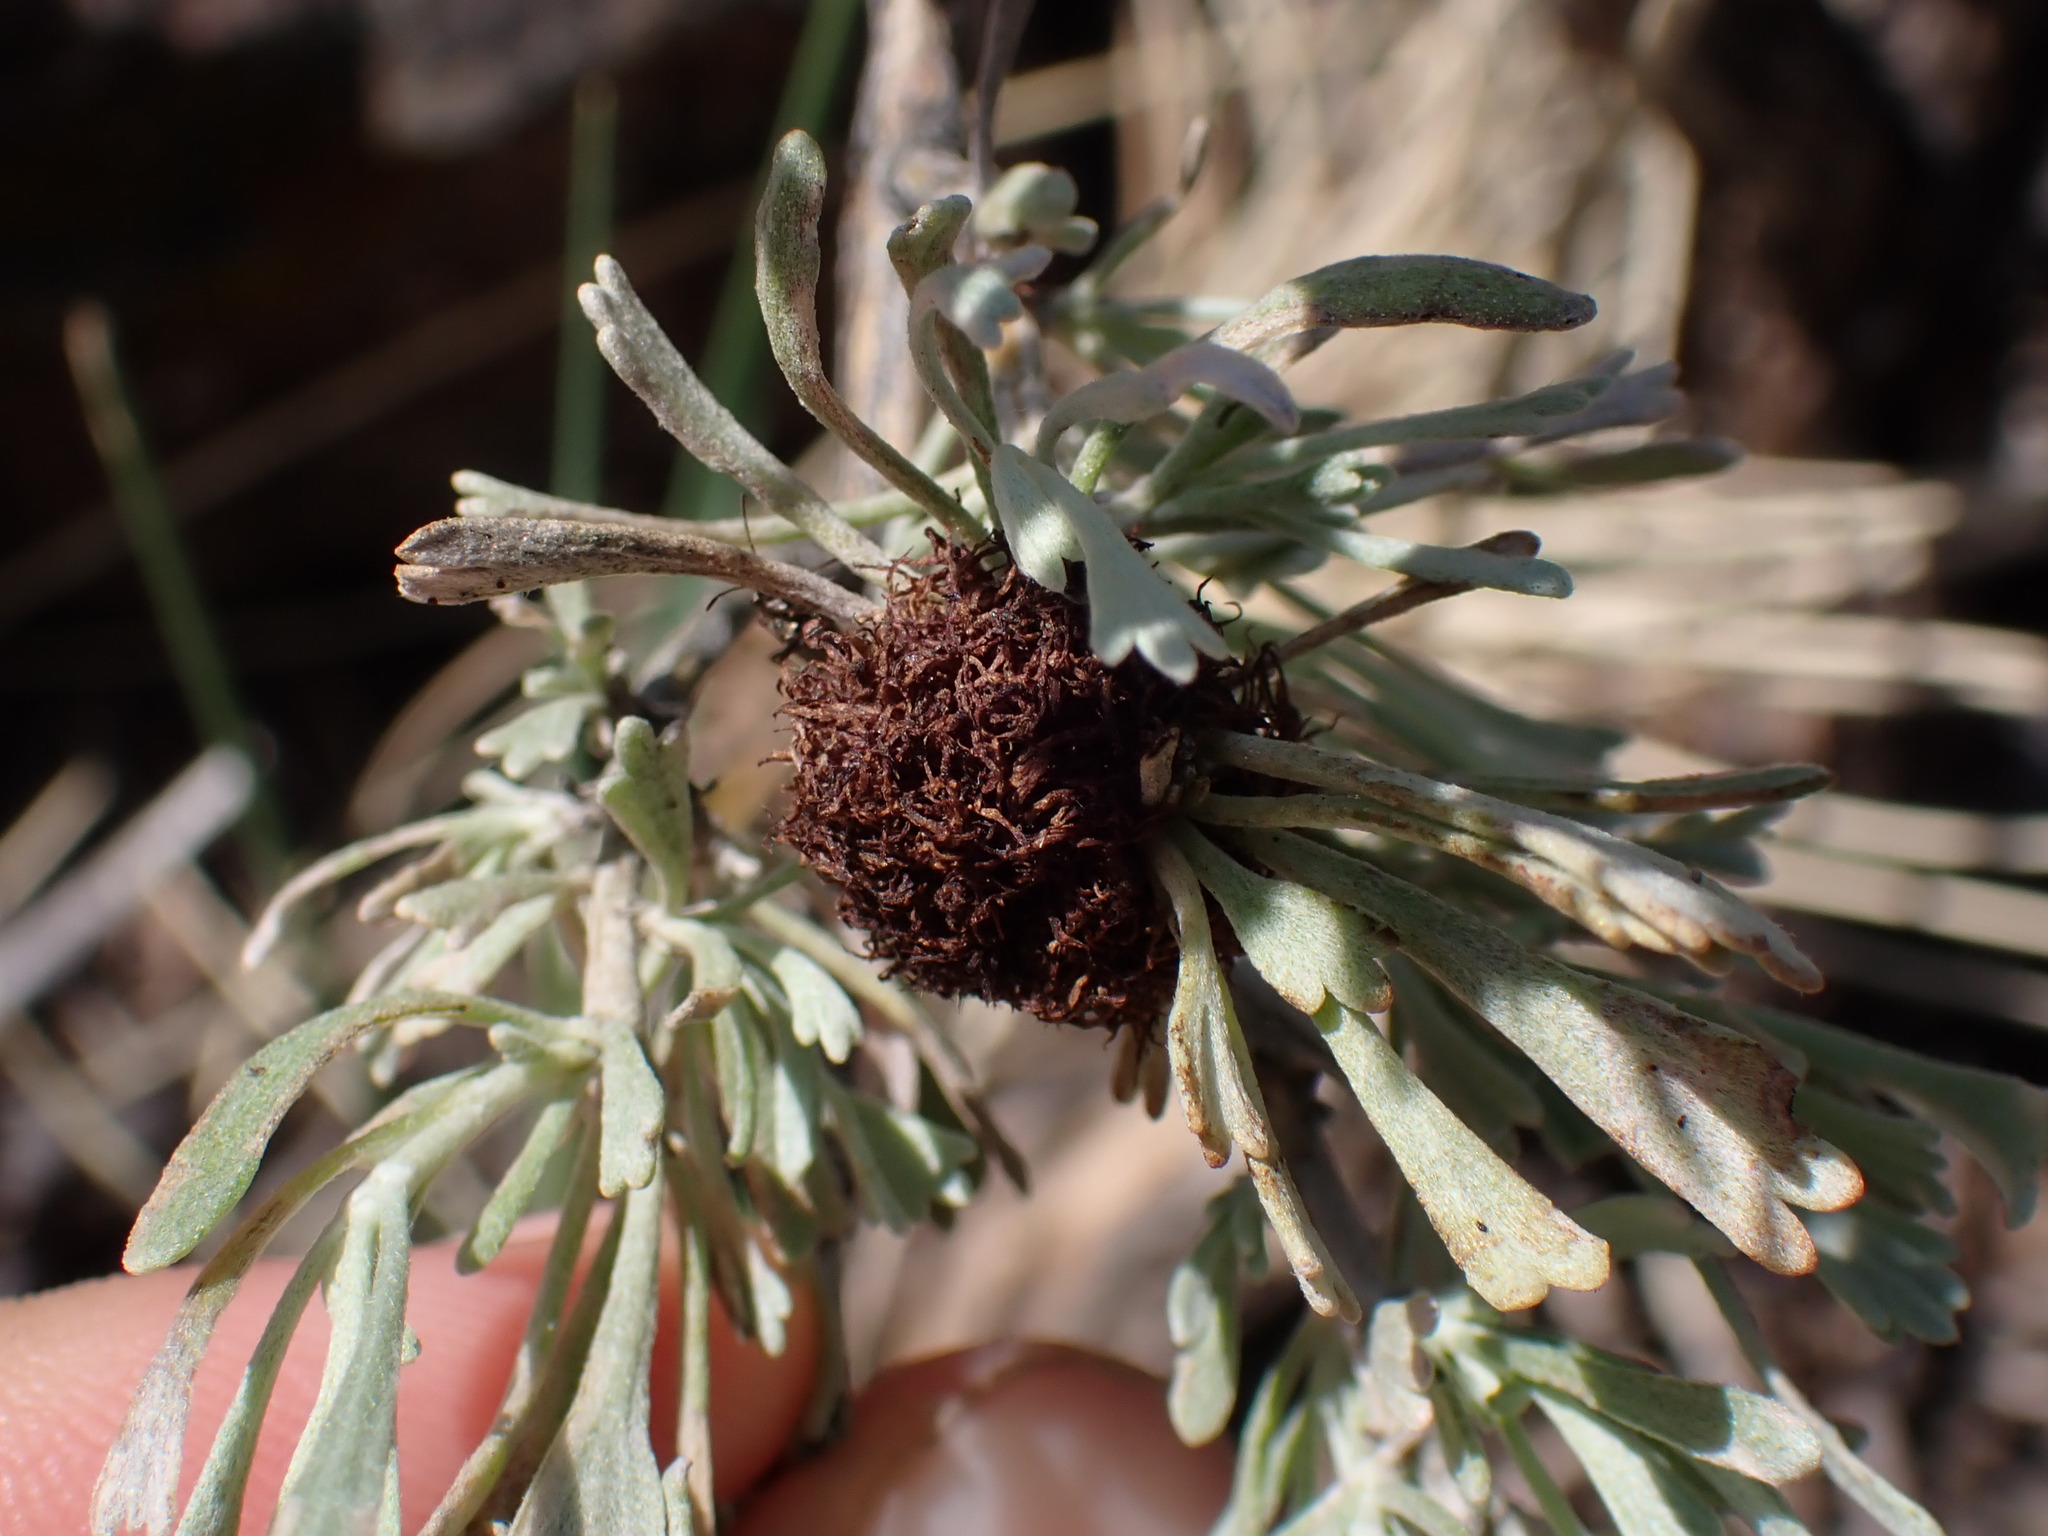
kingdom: Animalia
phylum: Arthropoda
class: Insecta
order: Diptera
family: Cecidomyiidae
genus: Rhopalomyia
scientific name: Rhopalomyia medusa
